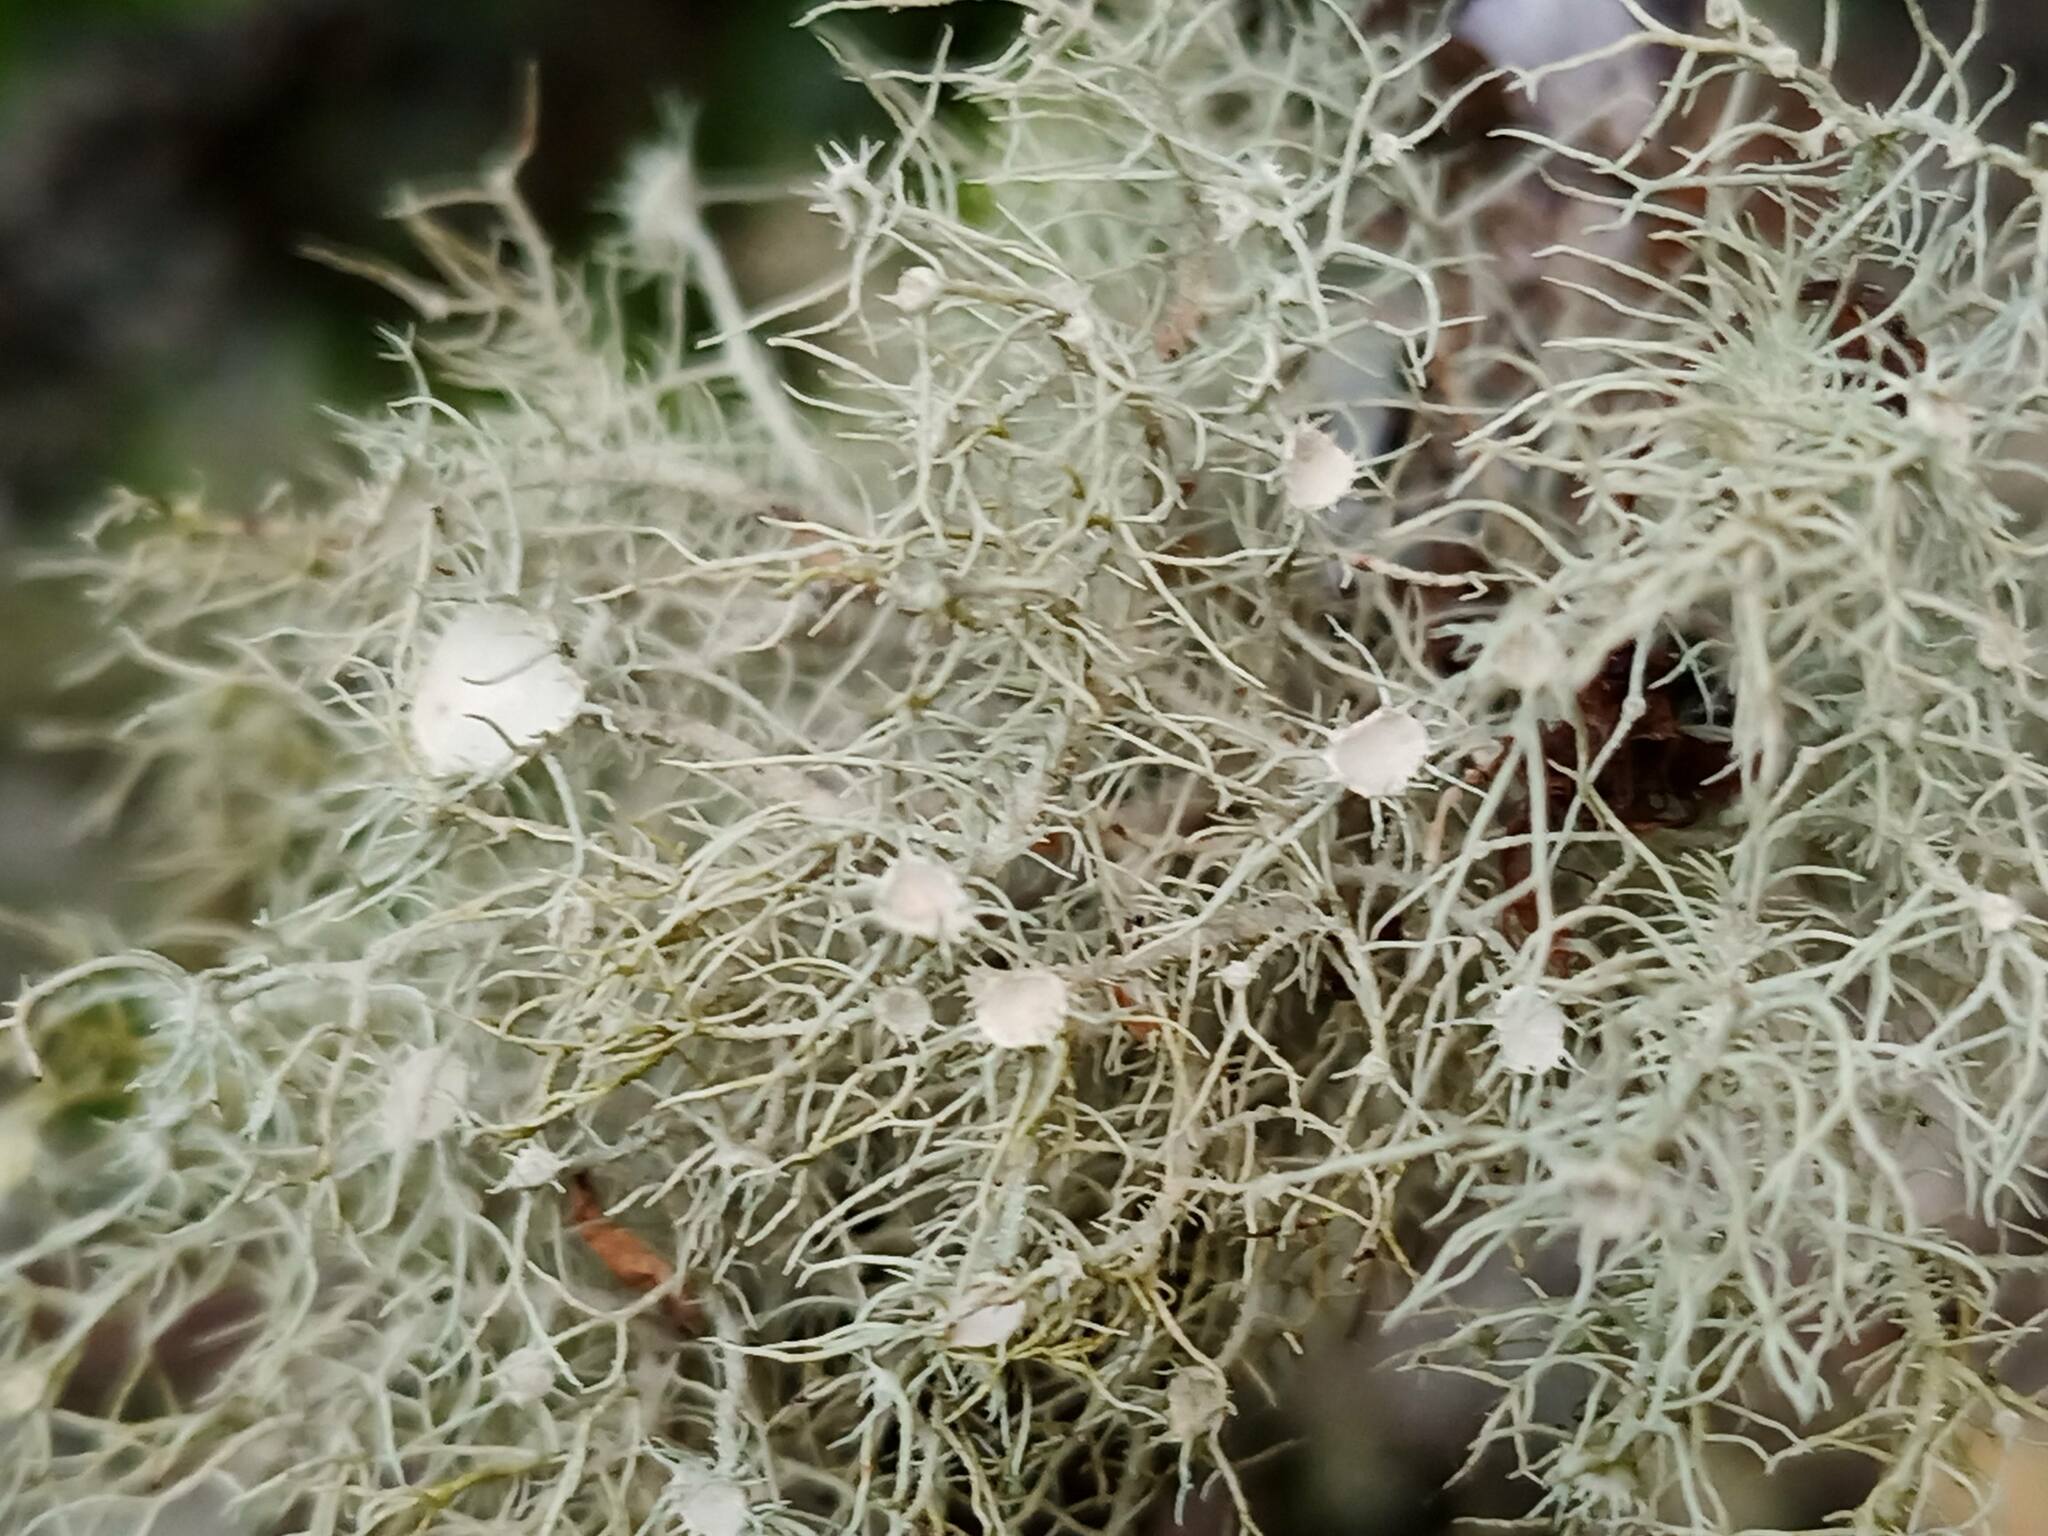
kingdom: Fungi
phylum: Ascomycota
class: Lecanoromycetes
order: Lecanorales
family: Parmeliaceae
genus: Usnea
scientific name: Usnea florida
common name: Witches' whiskers lichen
